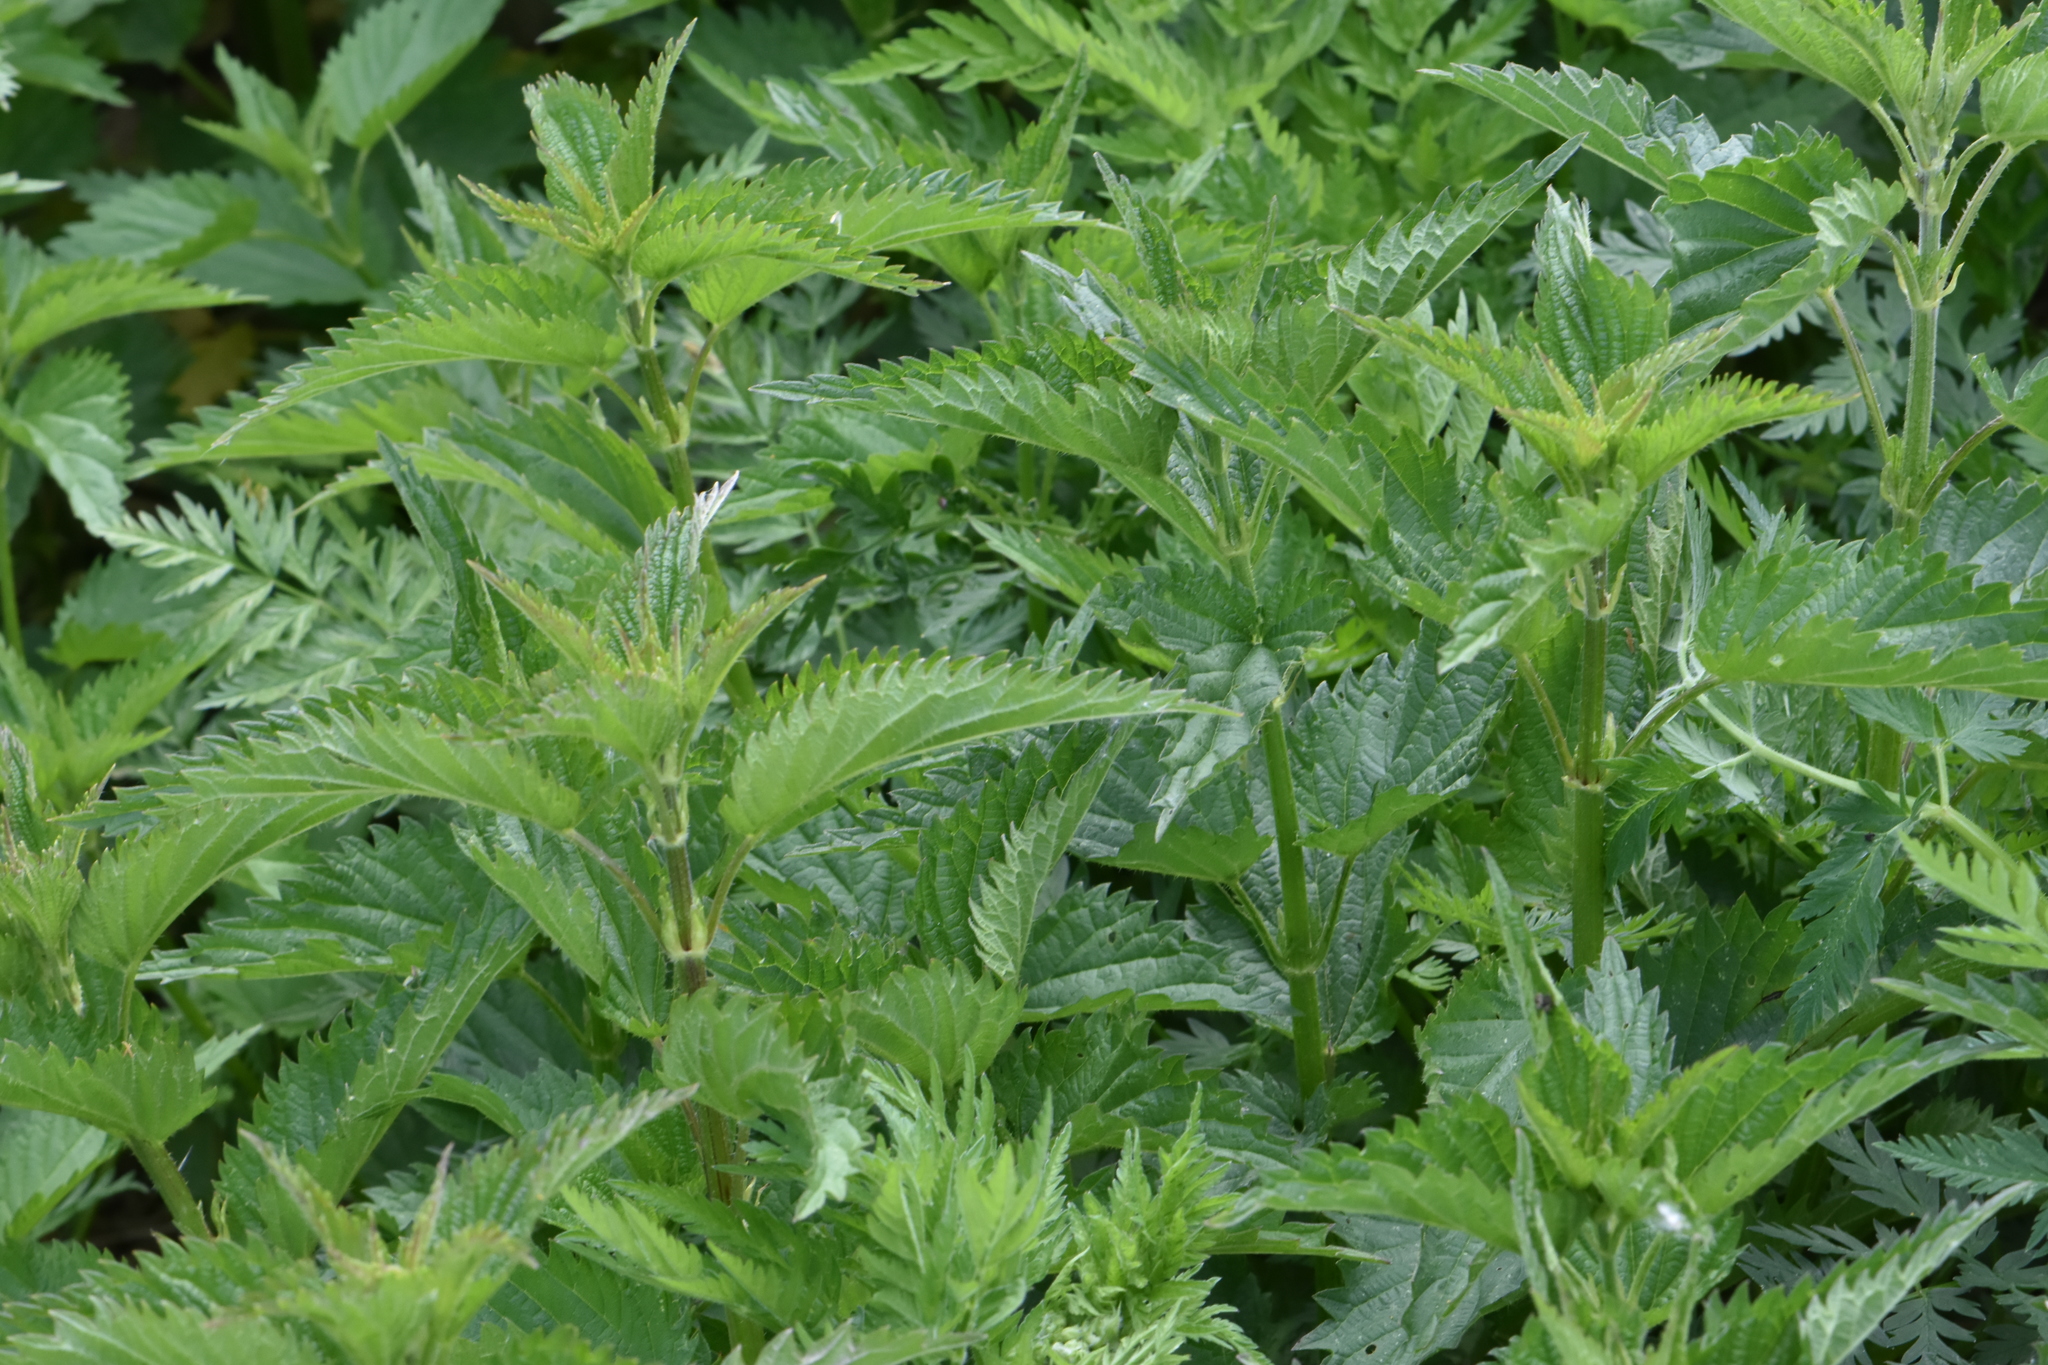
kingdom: Plantae
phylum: Tracheophyta
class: Magnoliopsida
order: Rosales
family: Urticaceae
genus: Urtica
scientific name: Urtica dioica
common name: Common nettle
